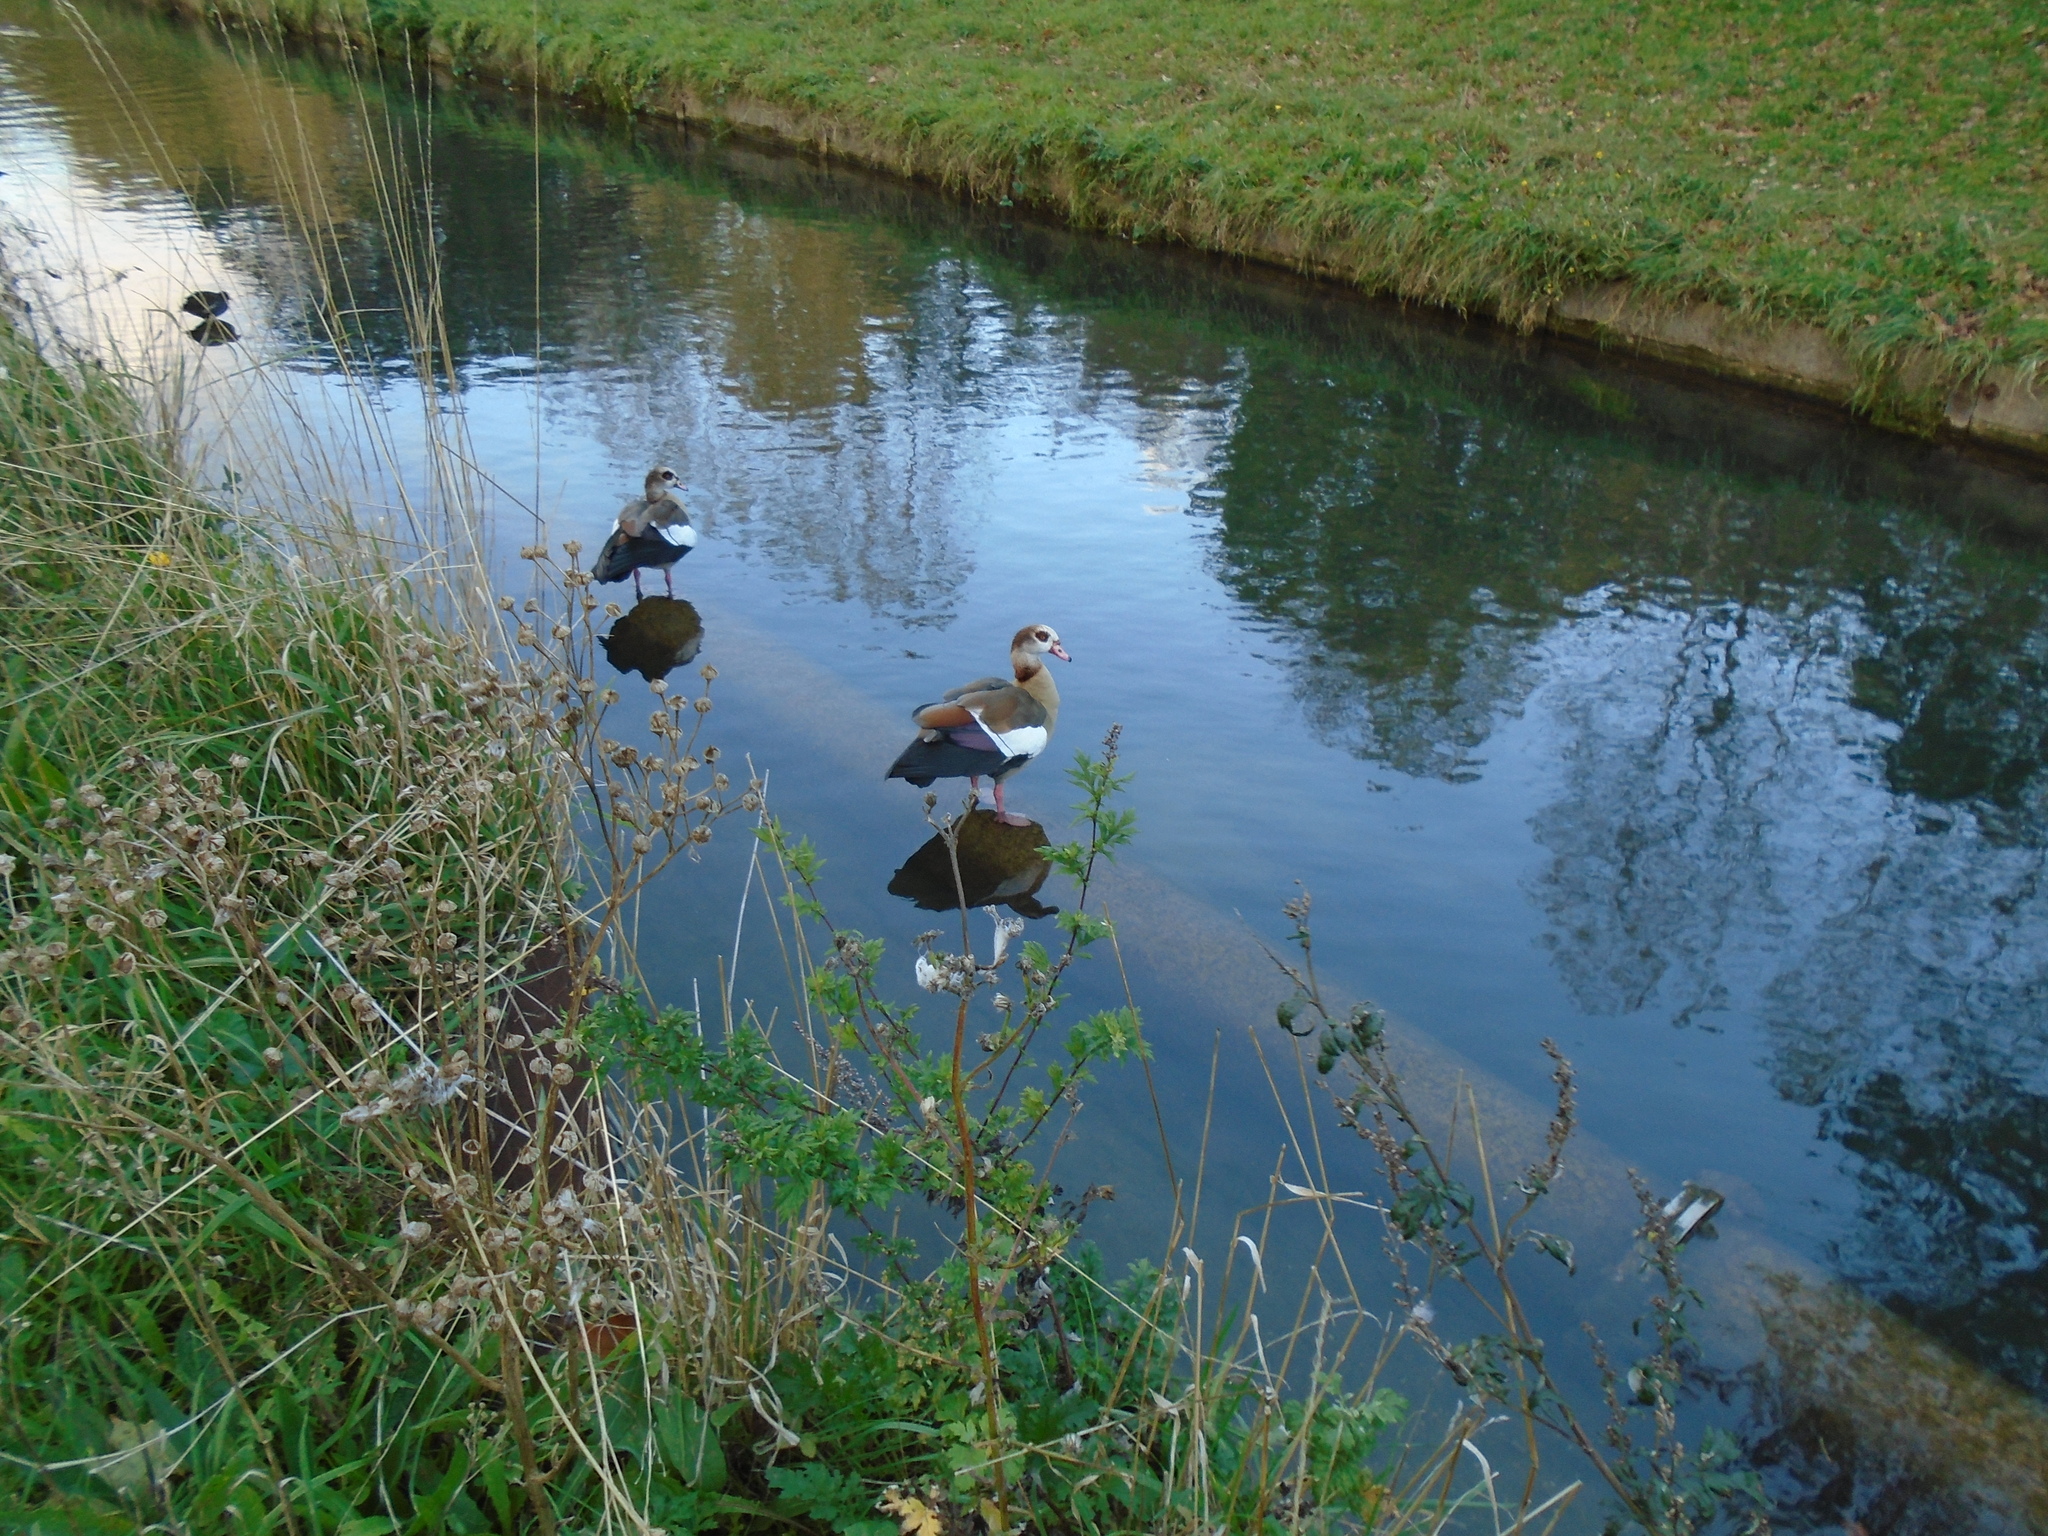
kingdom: Animalia
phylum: Chordata
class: Aves
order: Anseriformes
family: Anatidae
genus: Alopochen
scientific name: Alopochen aegyptiaca
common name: Egyptian goose
